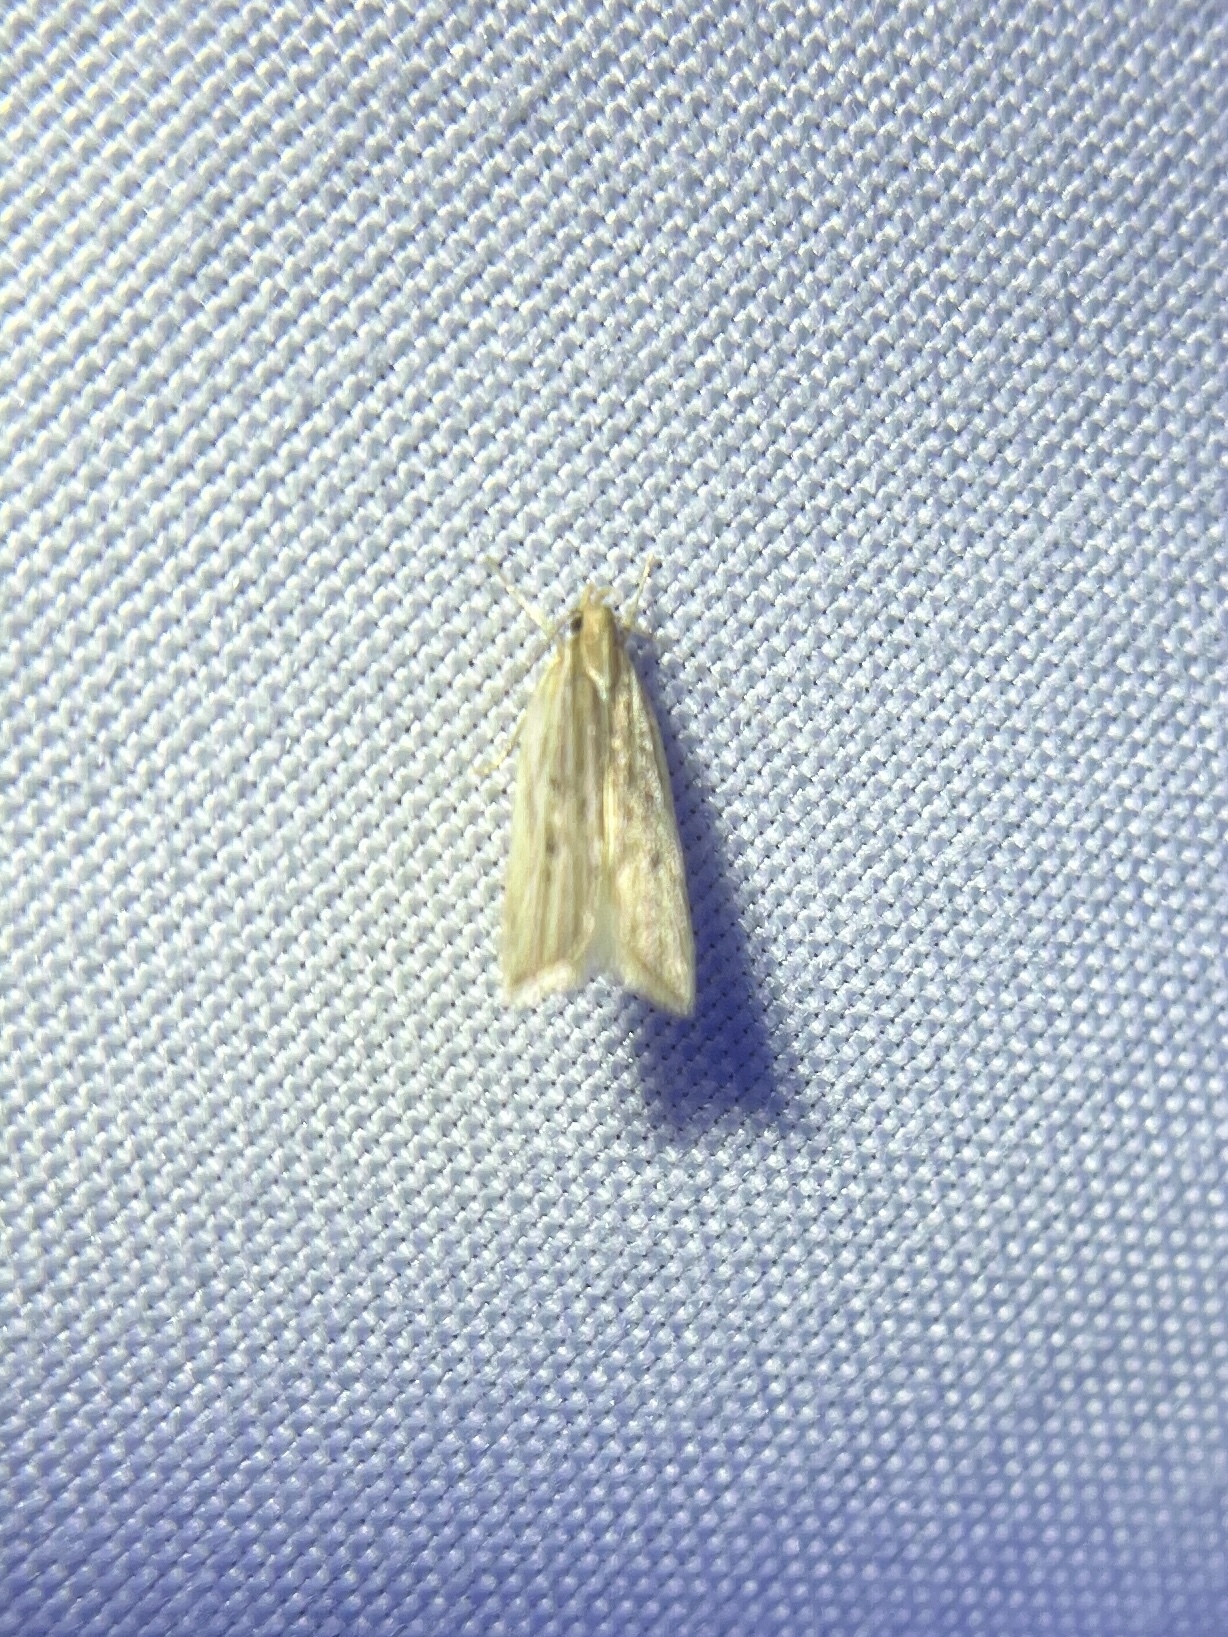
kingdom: Animalia
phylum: Arthropoda
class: Insecta
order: Lepidoptera
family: Gelechiidae
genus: Helcystogramma
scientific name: Helcystogramma hystricella
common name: Lanceolate moth
